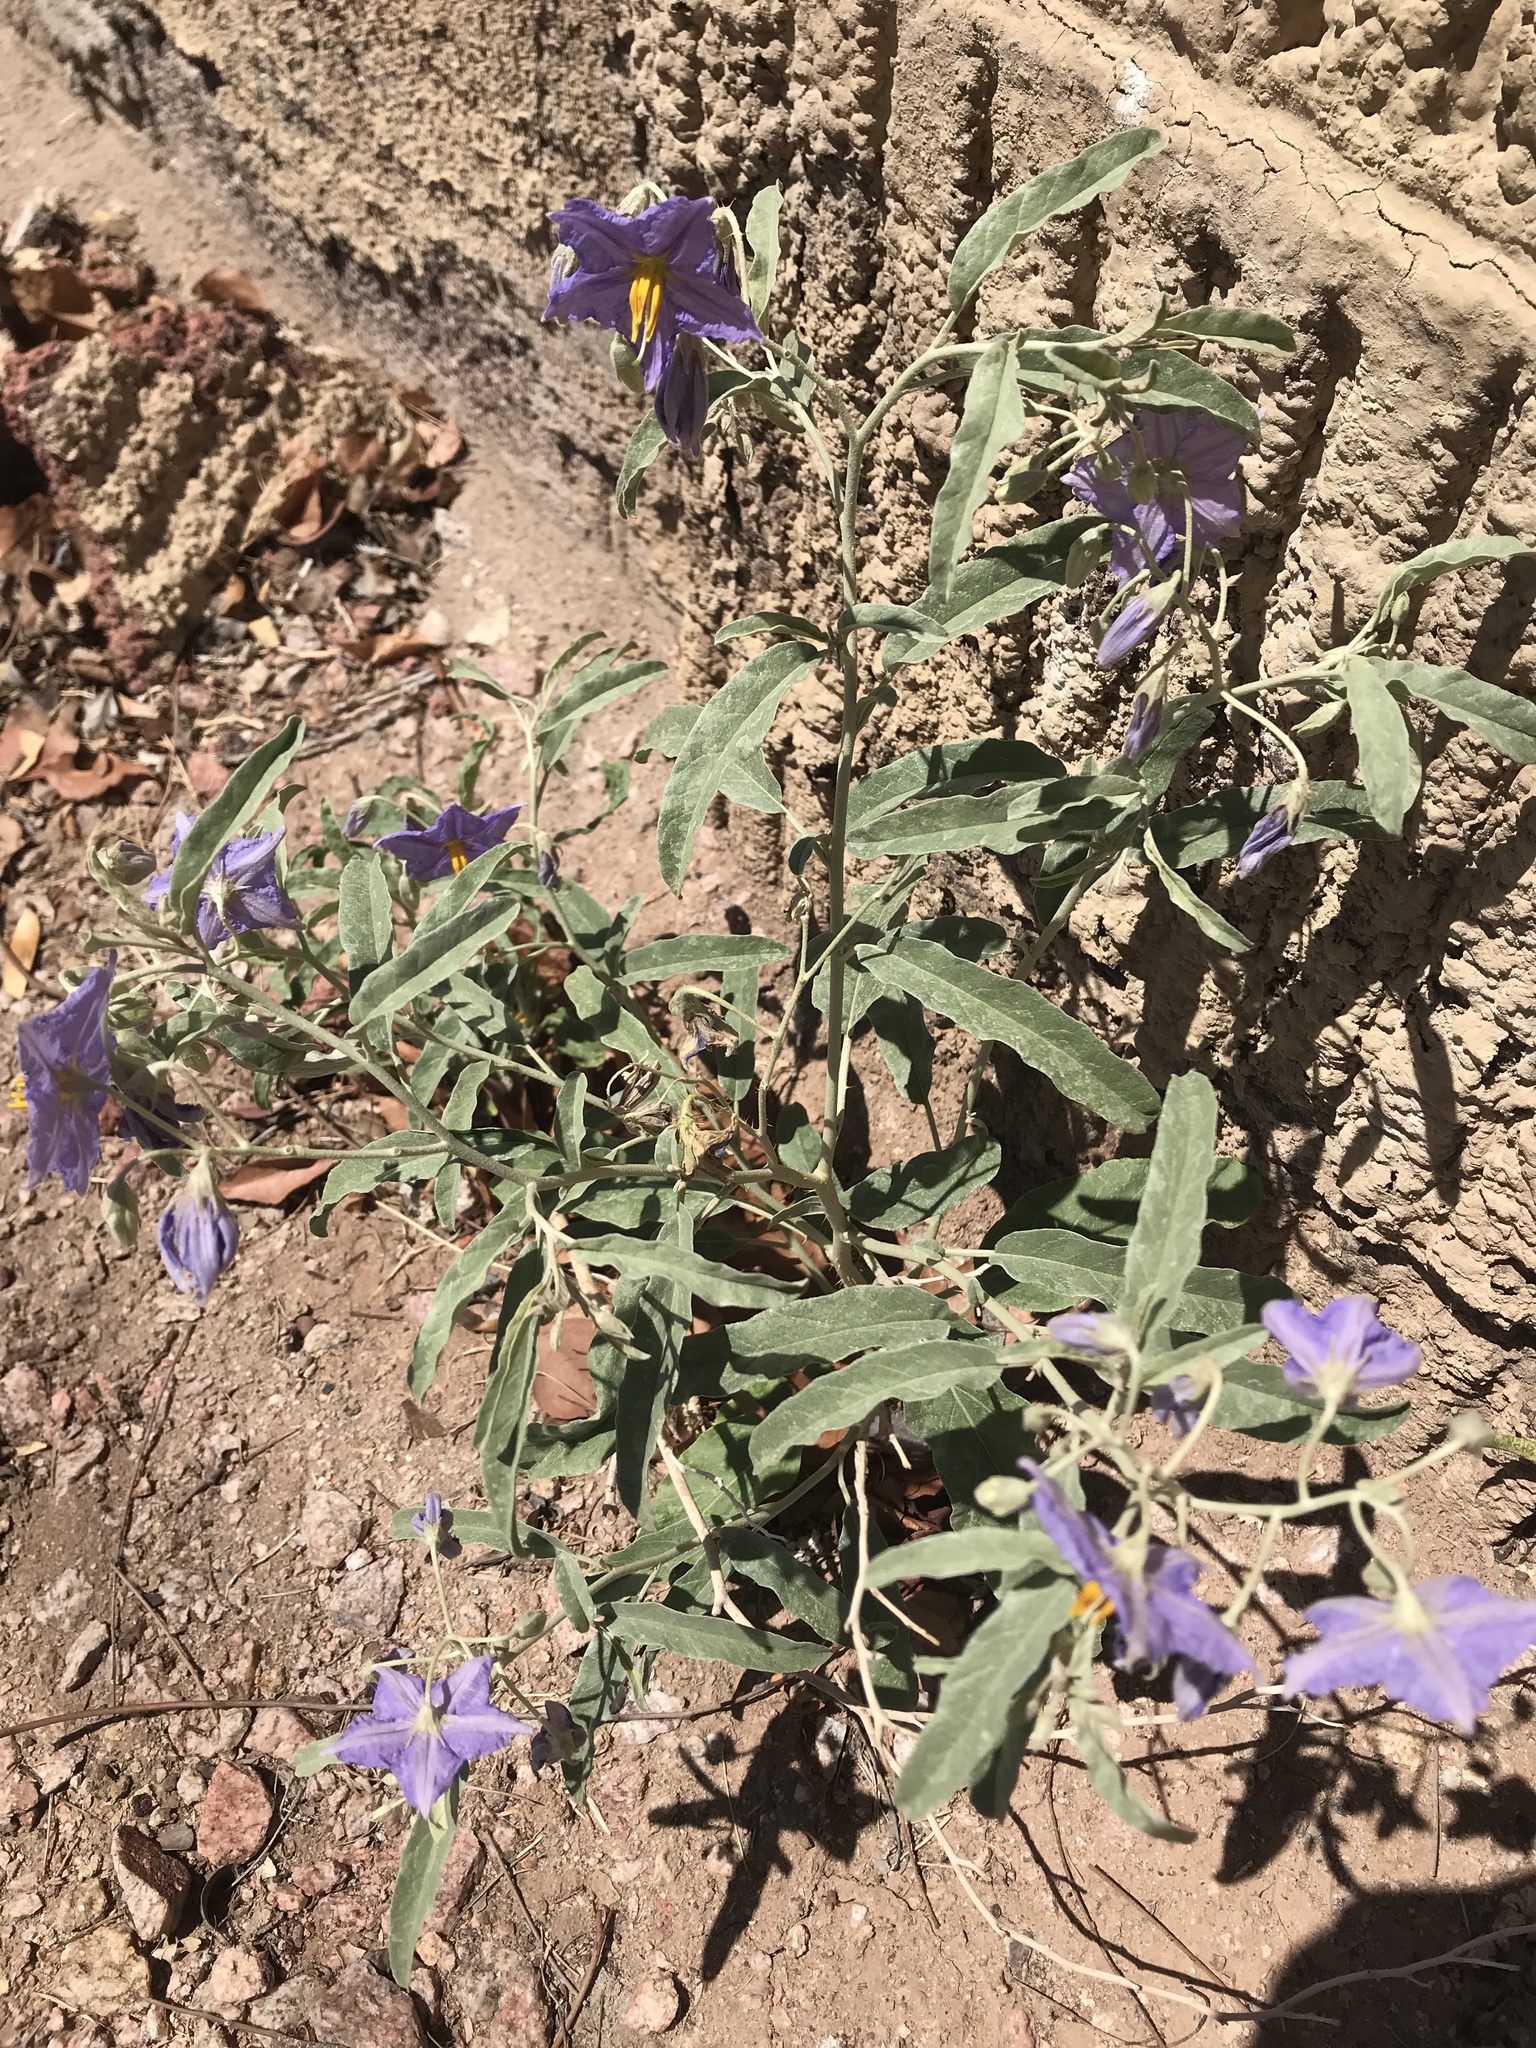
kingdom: Plantae
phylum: Tracheophyta
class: Magnoliopsida
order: Solanales
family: Solanaceae
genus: Solanum
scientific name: Solanum elaeagnifolium
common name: Silverleaf nightshade
